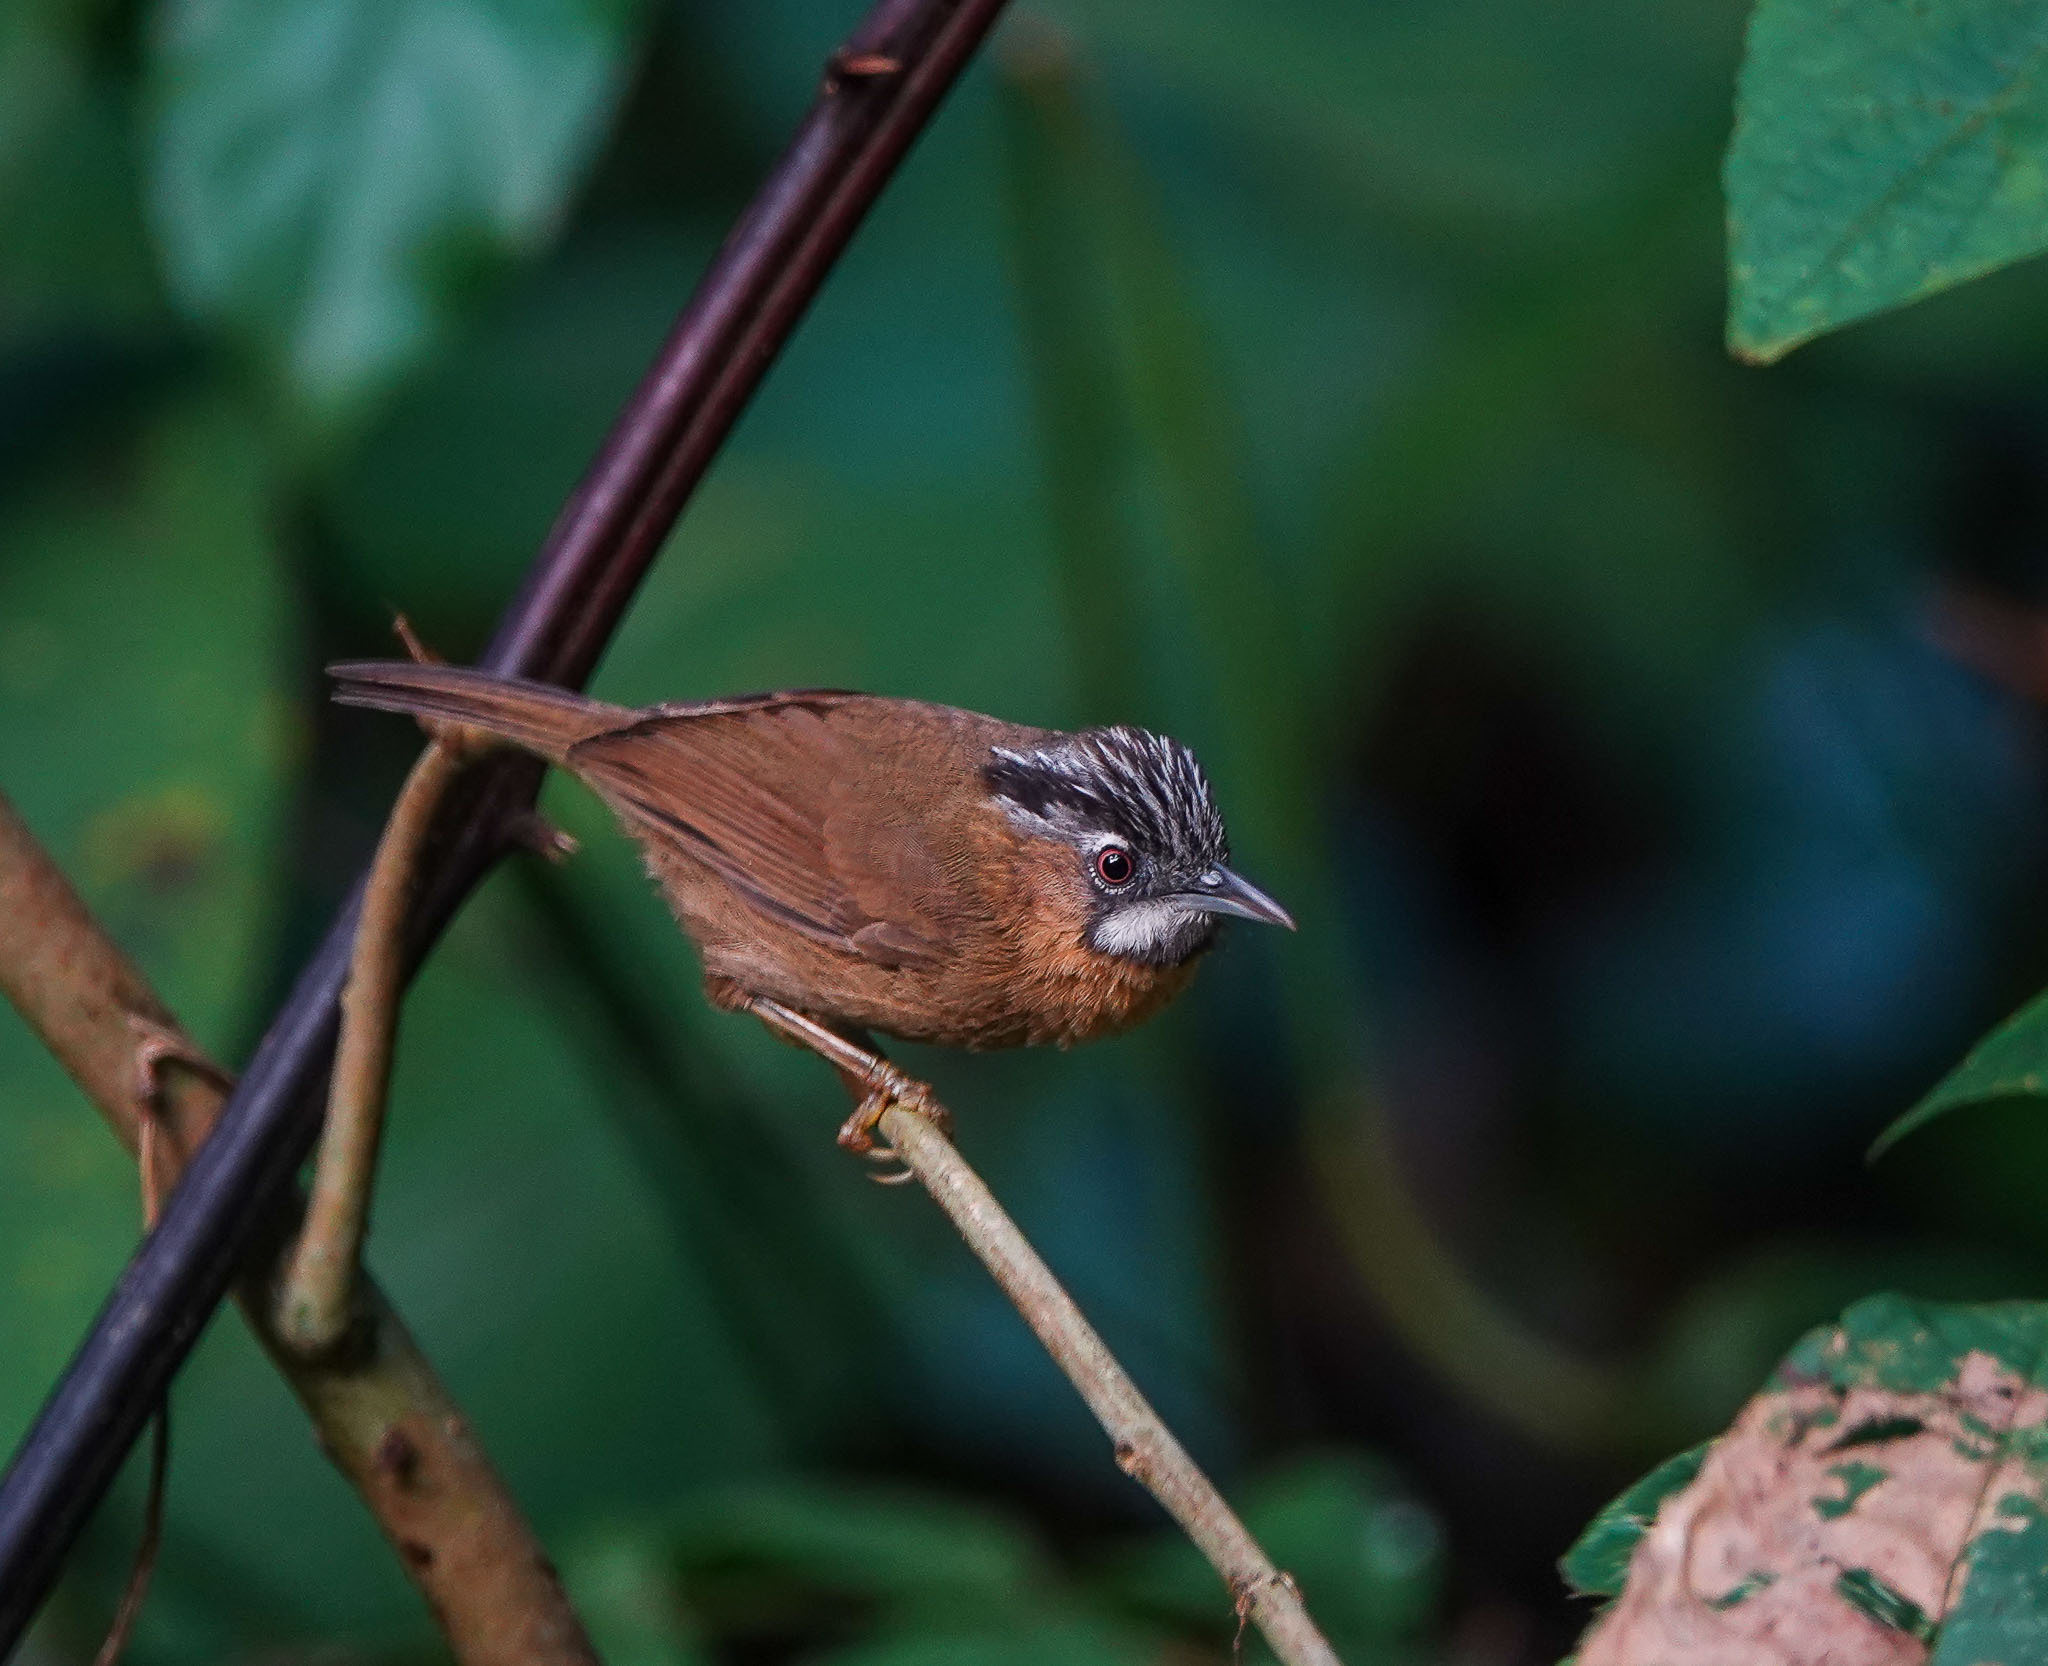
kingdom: Animalia
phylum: Chordata
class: Aves
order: Passeriformes
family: Timaliidae
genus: Stachyris
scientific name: Stachyris nigriceps
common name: Grey-throated babbler
